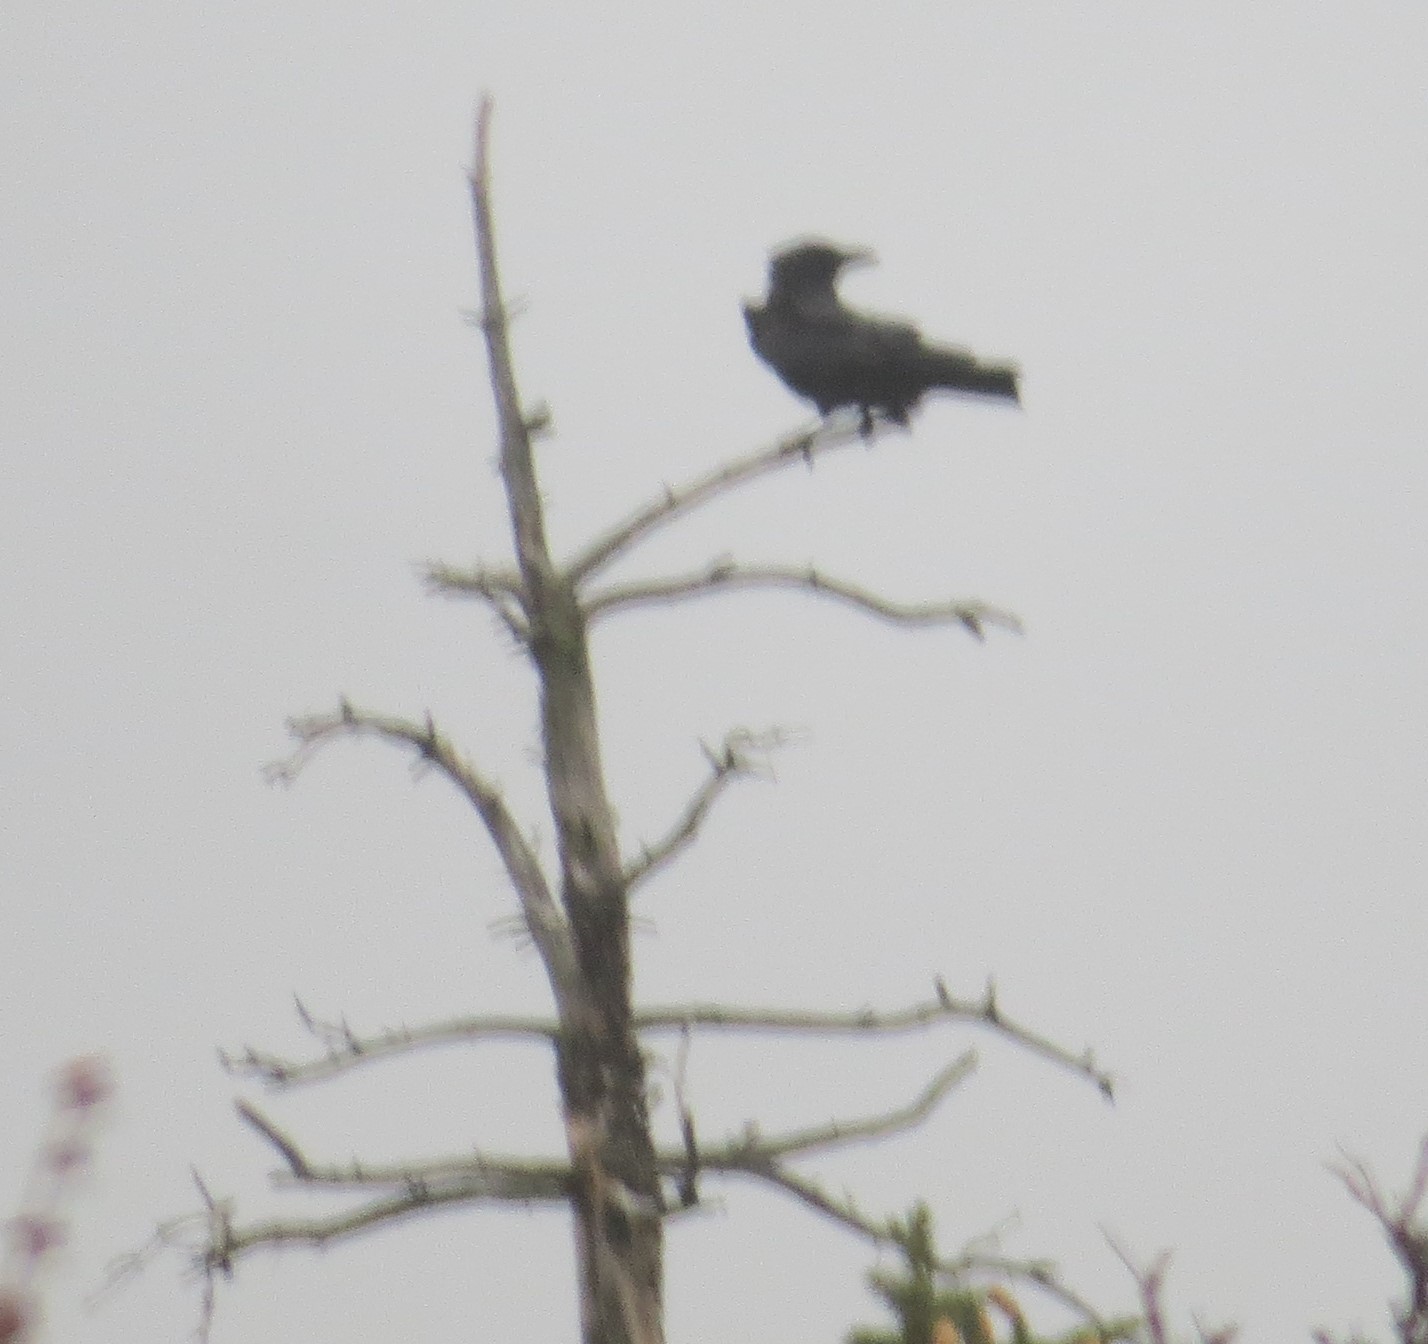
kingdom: Animalia
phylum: Chordata
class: Aves
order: Passeriformes
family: Corvidae
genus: Corvus
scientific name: Corvus brachyrhynchos
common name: American crow
